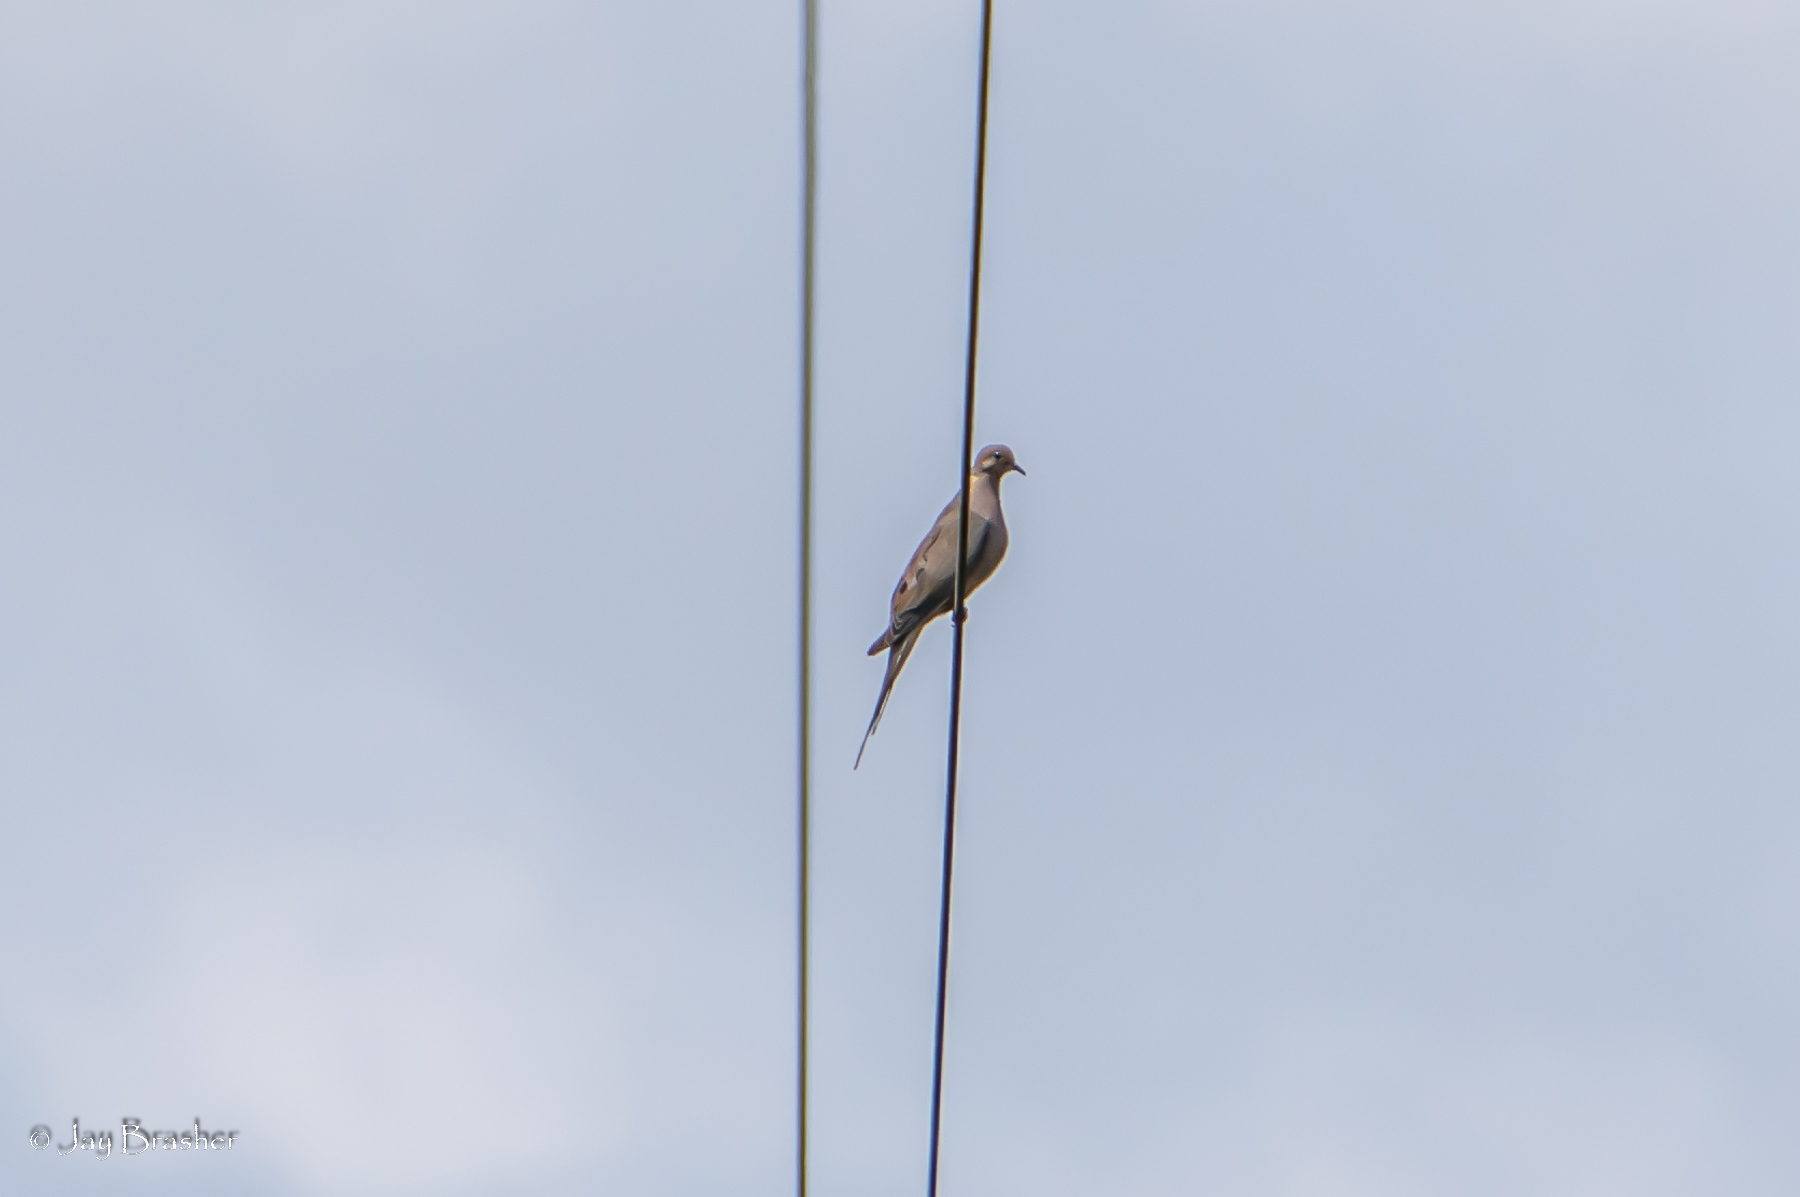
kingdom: Animalia
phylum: Chordata
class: Aves
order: Columbiformes
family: Columbidae
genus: Zenaida
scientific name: Zenaida macroura
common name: Mourning dove
